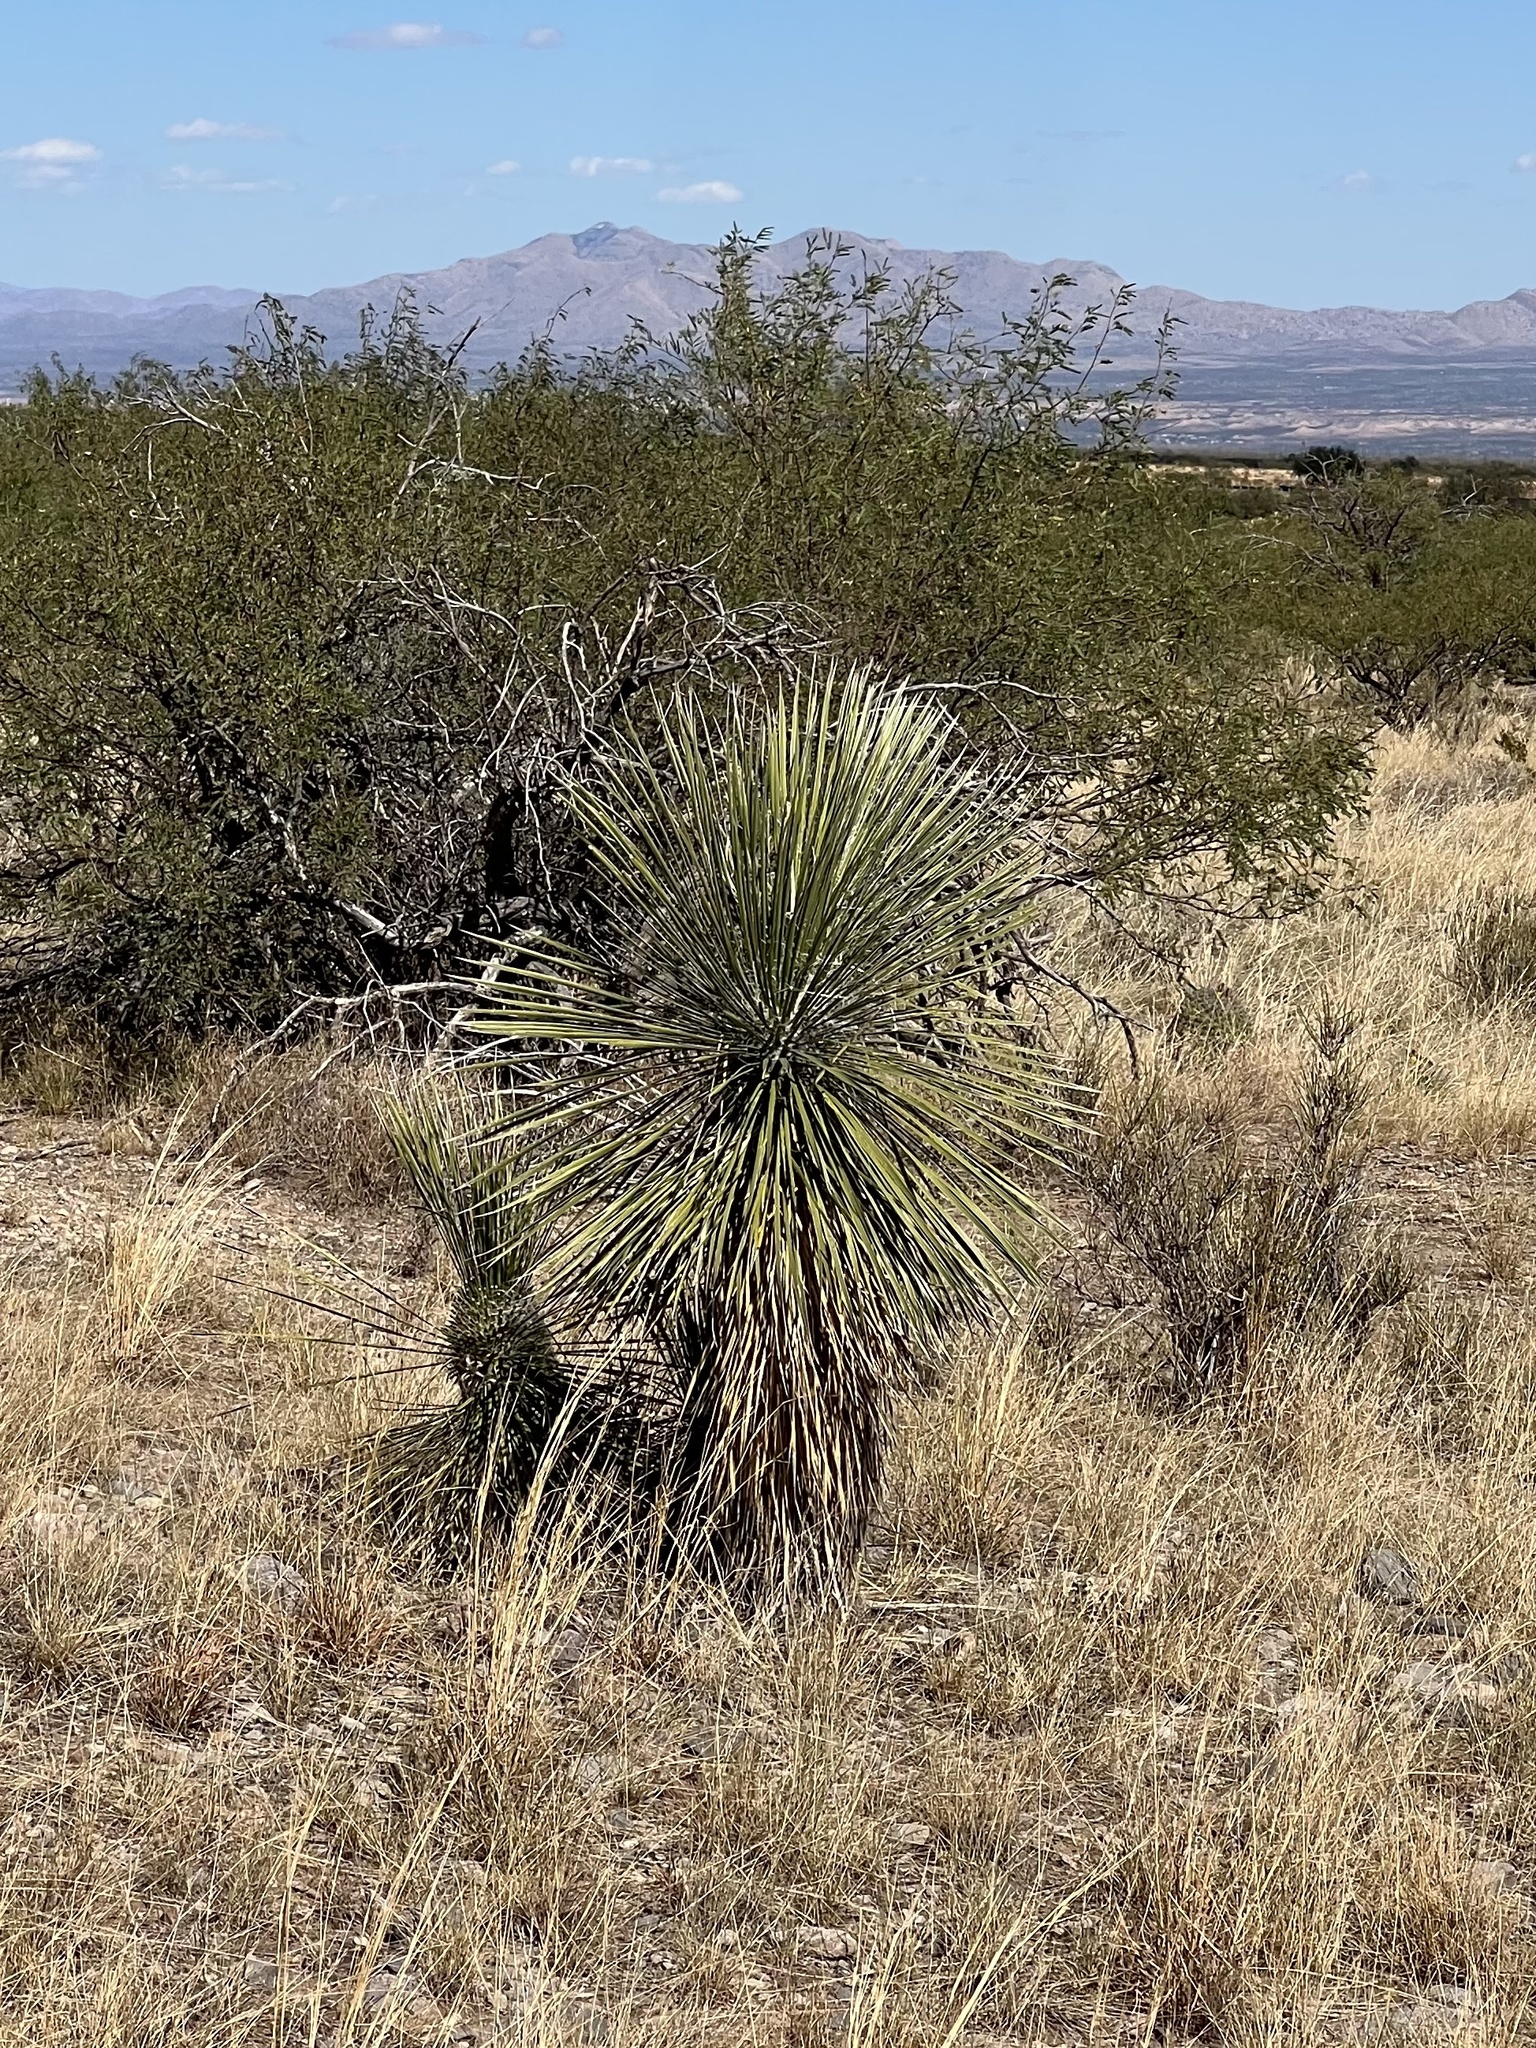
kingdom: Plantae
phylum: Tracheophyta
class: Liliopsida
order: Asparagales
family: Asparagaceae
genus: Yucca
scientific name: Yucca elata
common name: Palmella
